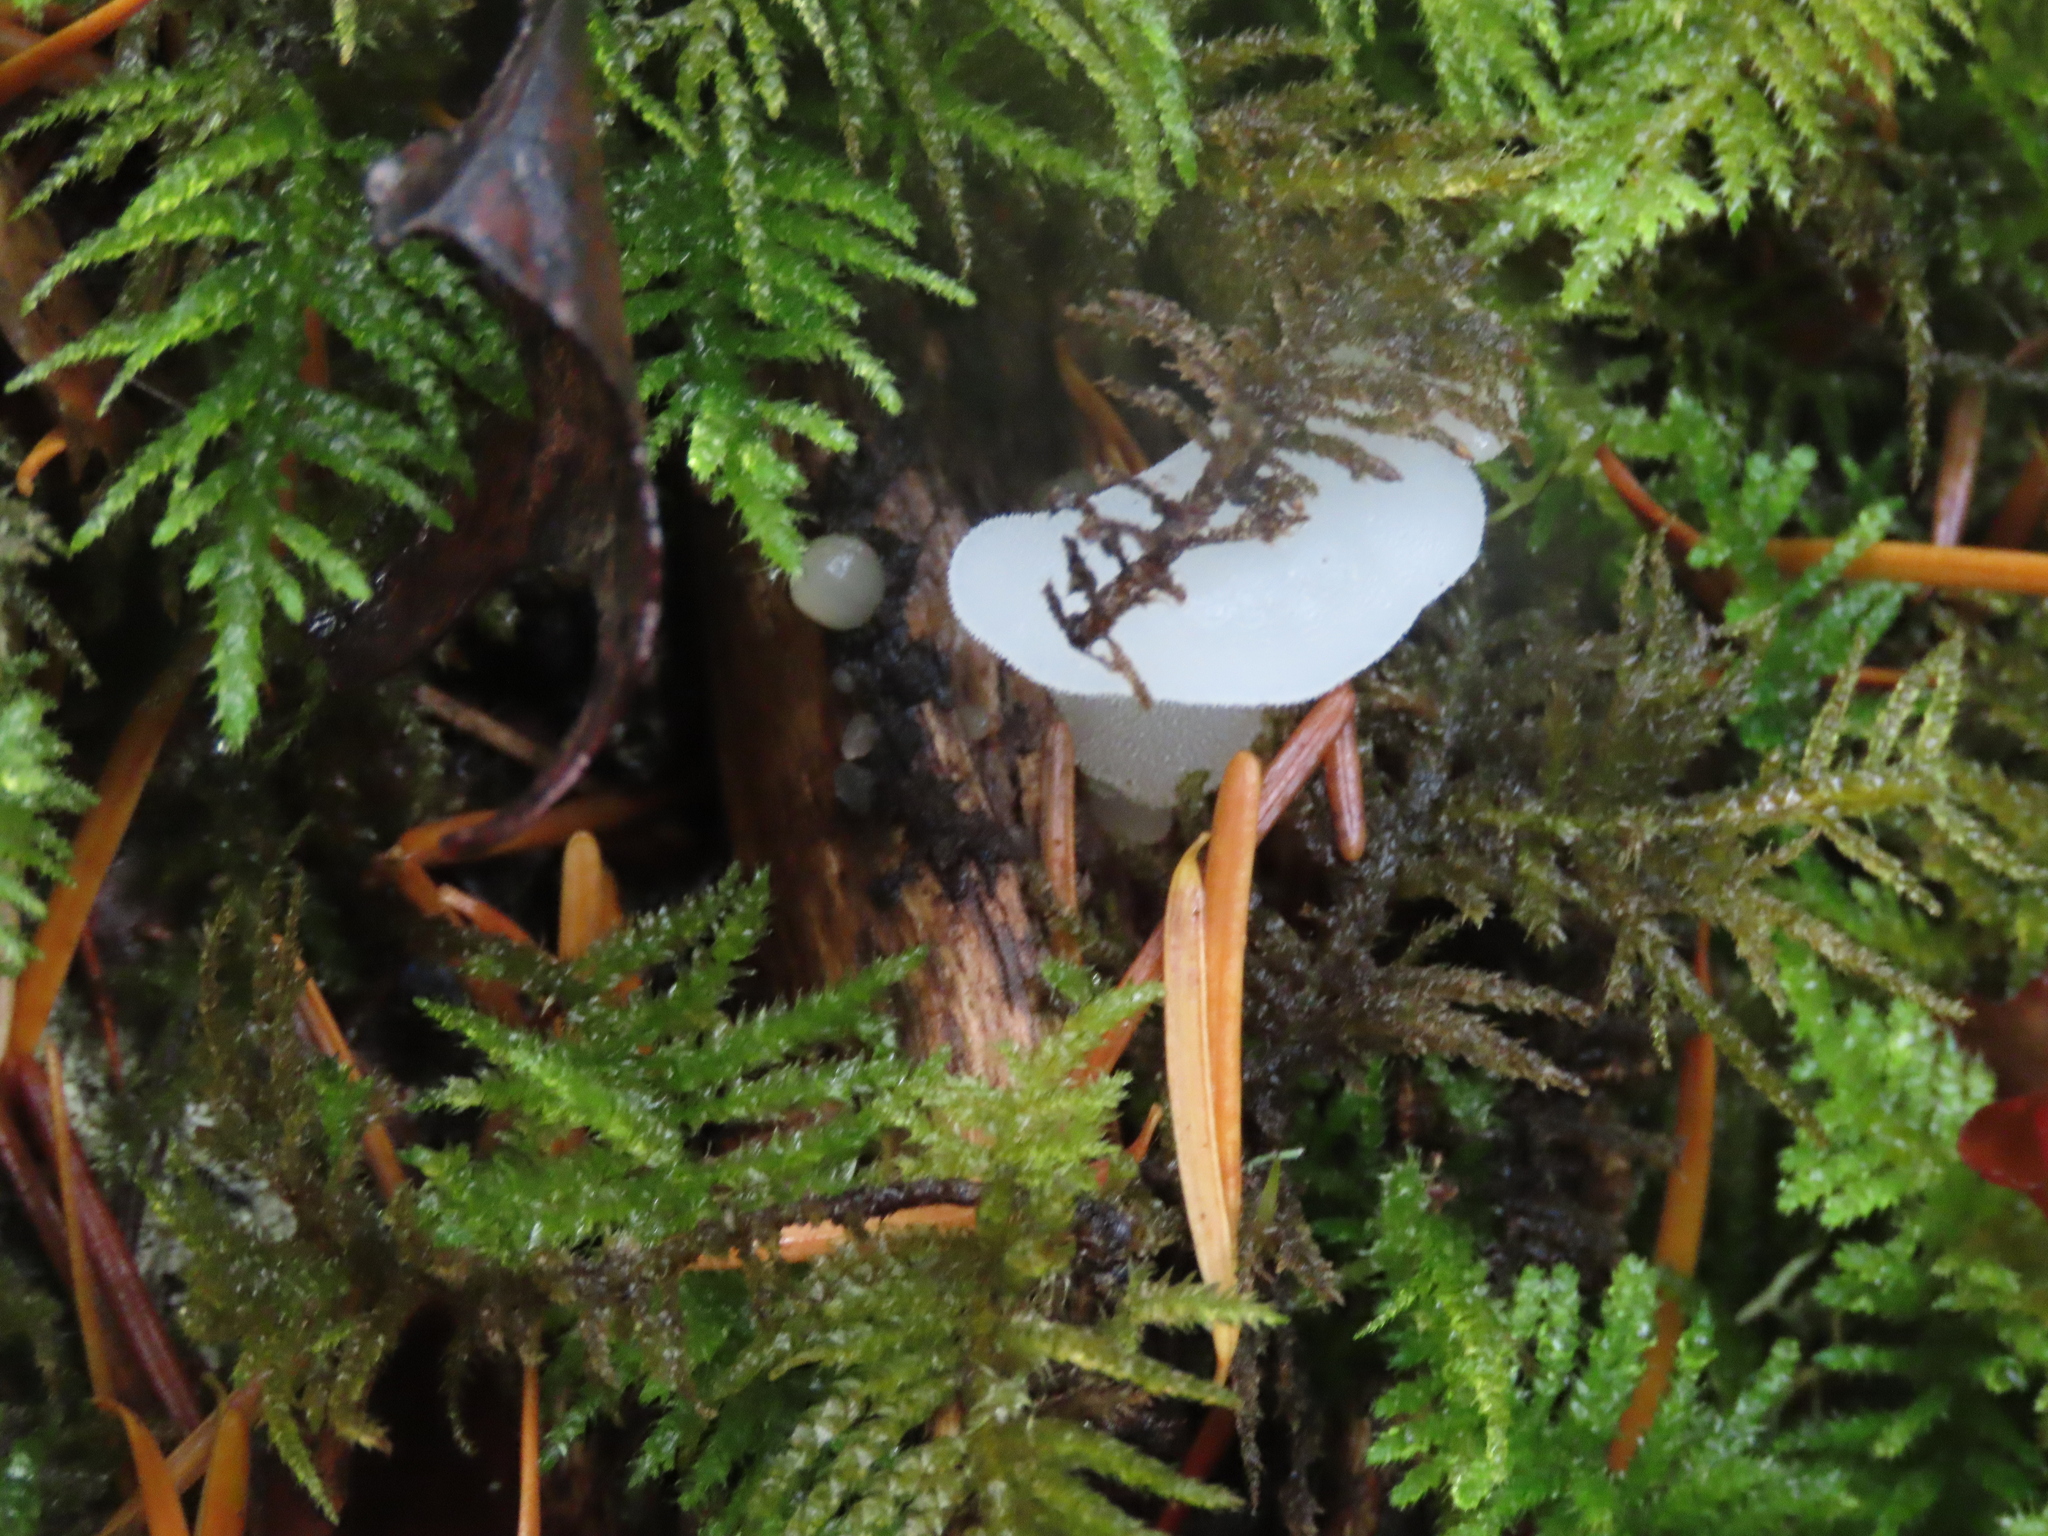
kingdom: Fungi
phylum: Basidiomycota
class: Agaricomycetes
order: Auriculariales
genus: Pseudohydnum
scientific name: Pseudohydnum gelatinosum
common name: Jelly tongue
